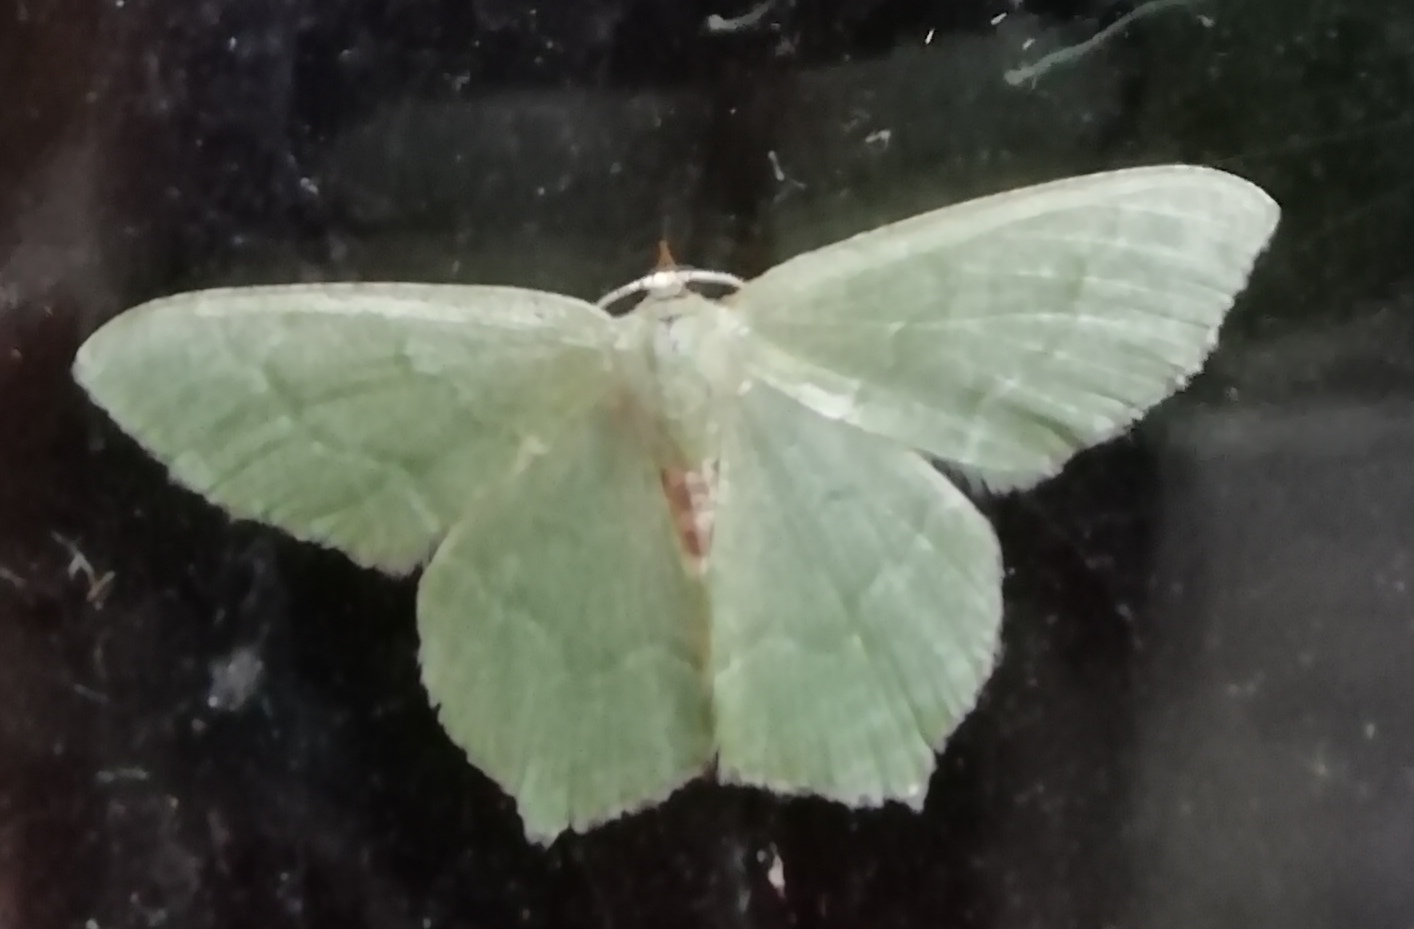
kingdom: Animalia
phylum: Arthropoda
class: Insecta
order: Lepidoptera
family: Geometridae
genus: Hemithea
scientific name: Hemithea aestivaria
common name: Common emerald
